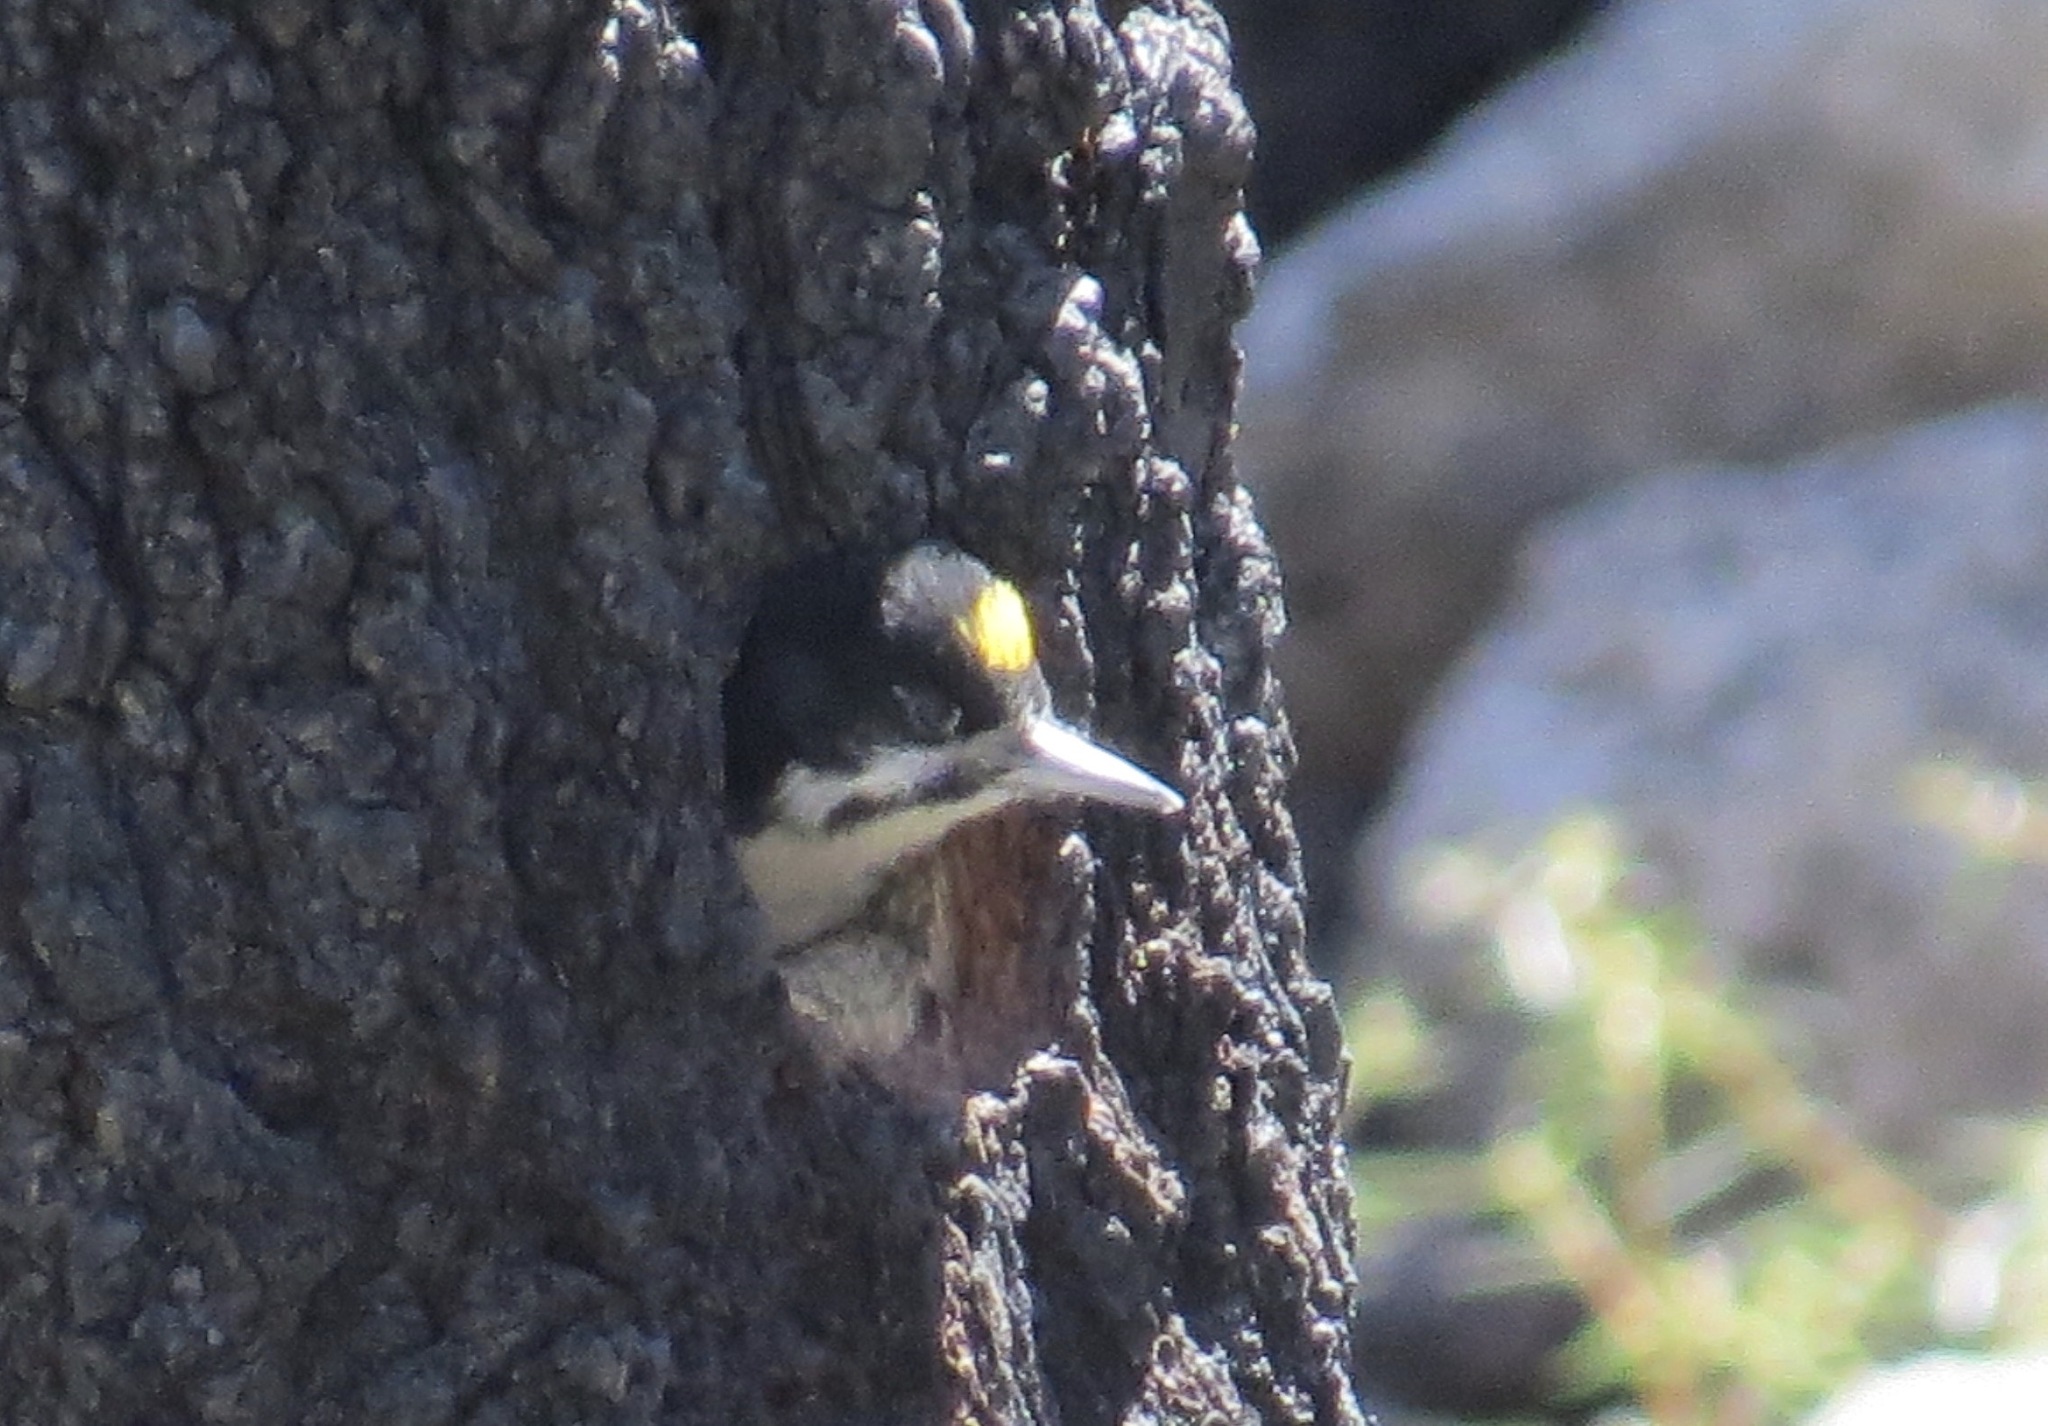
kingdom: Animalia
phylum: Chordata
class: Aves
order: Piciformes
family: Picidae
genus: Picoides
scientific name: Picoides arcticus
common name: Black-backed woodpecker
